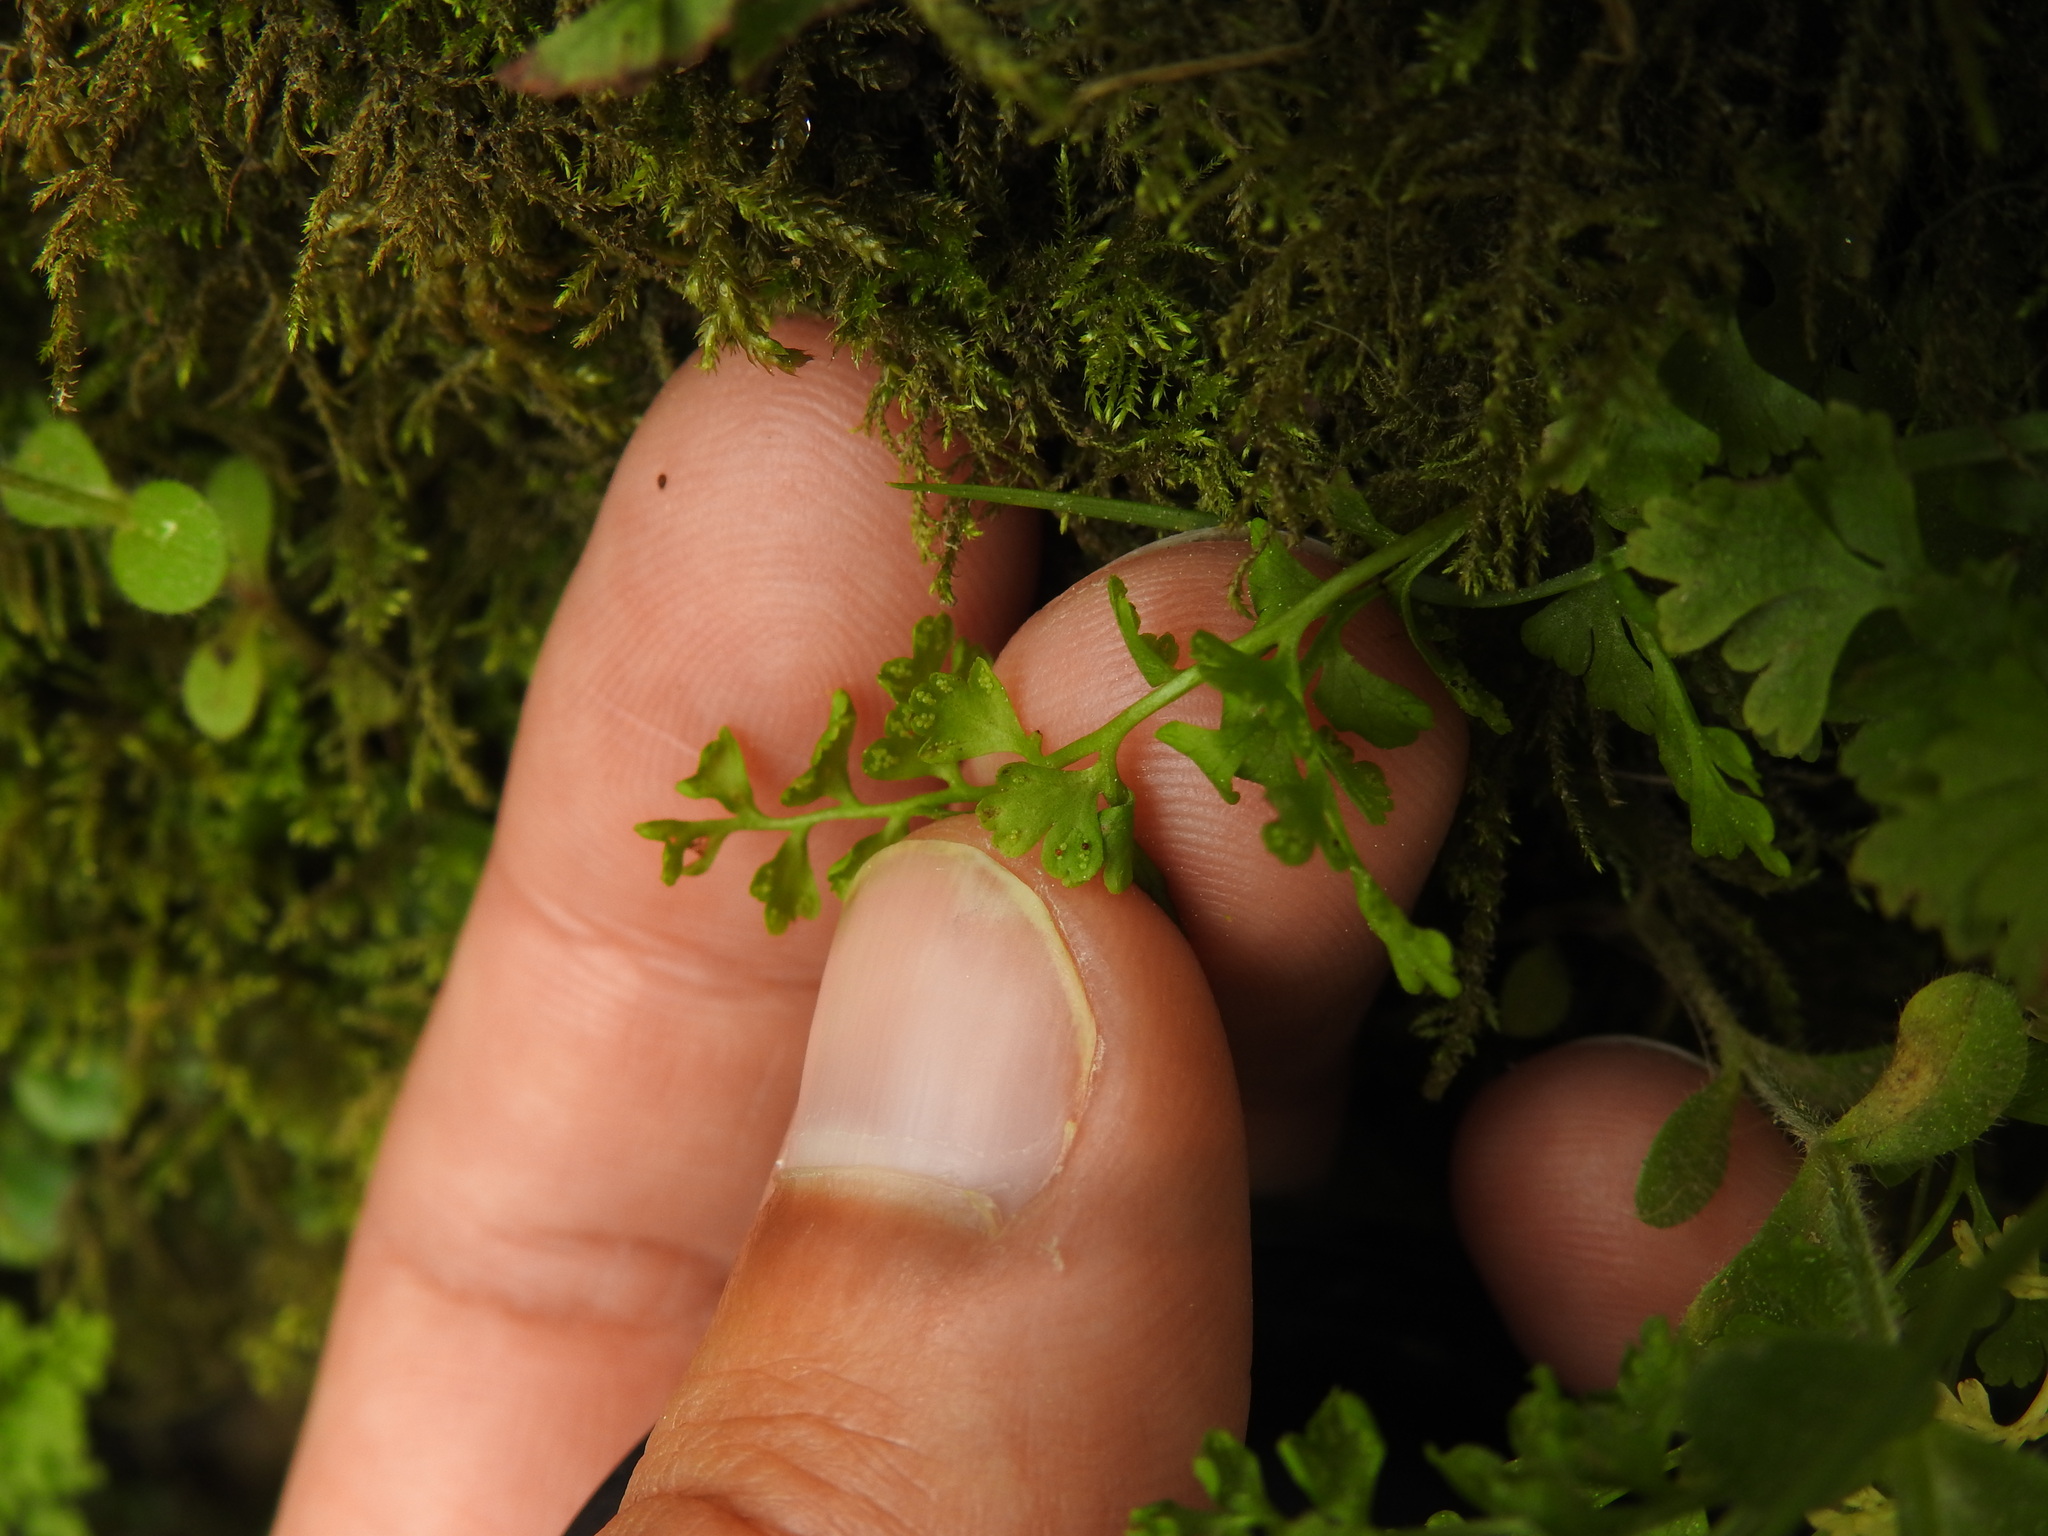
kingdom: Plantae
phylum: Tracheophyta
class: Polypodiopsida
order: Polypodiales
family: Pteridaceae
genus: Anogramma
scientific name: Anogramma leptophylla
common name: Jersey fern
